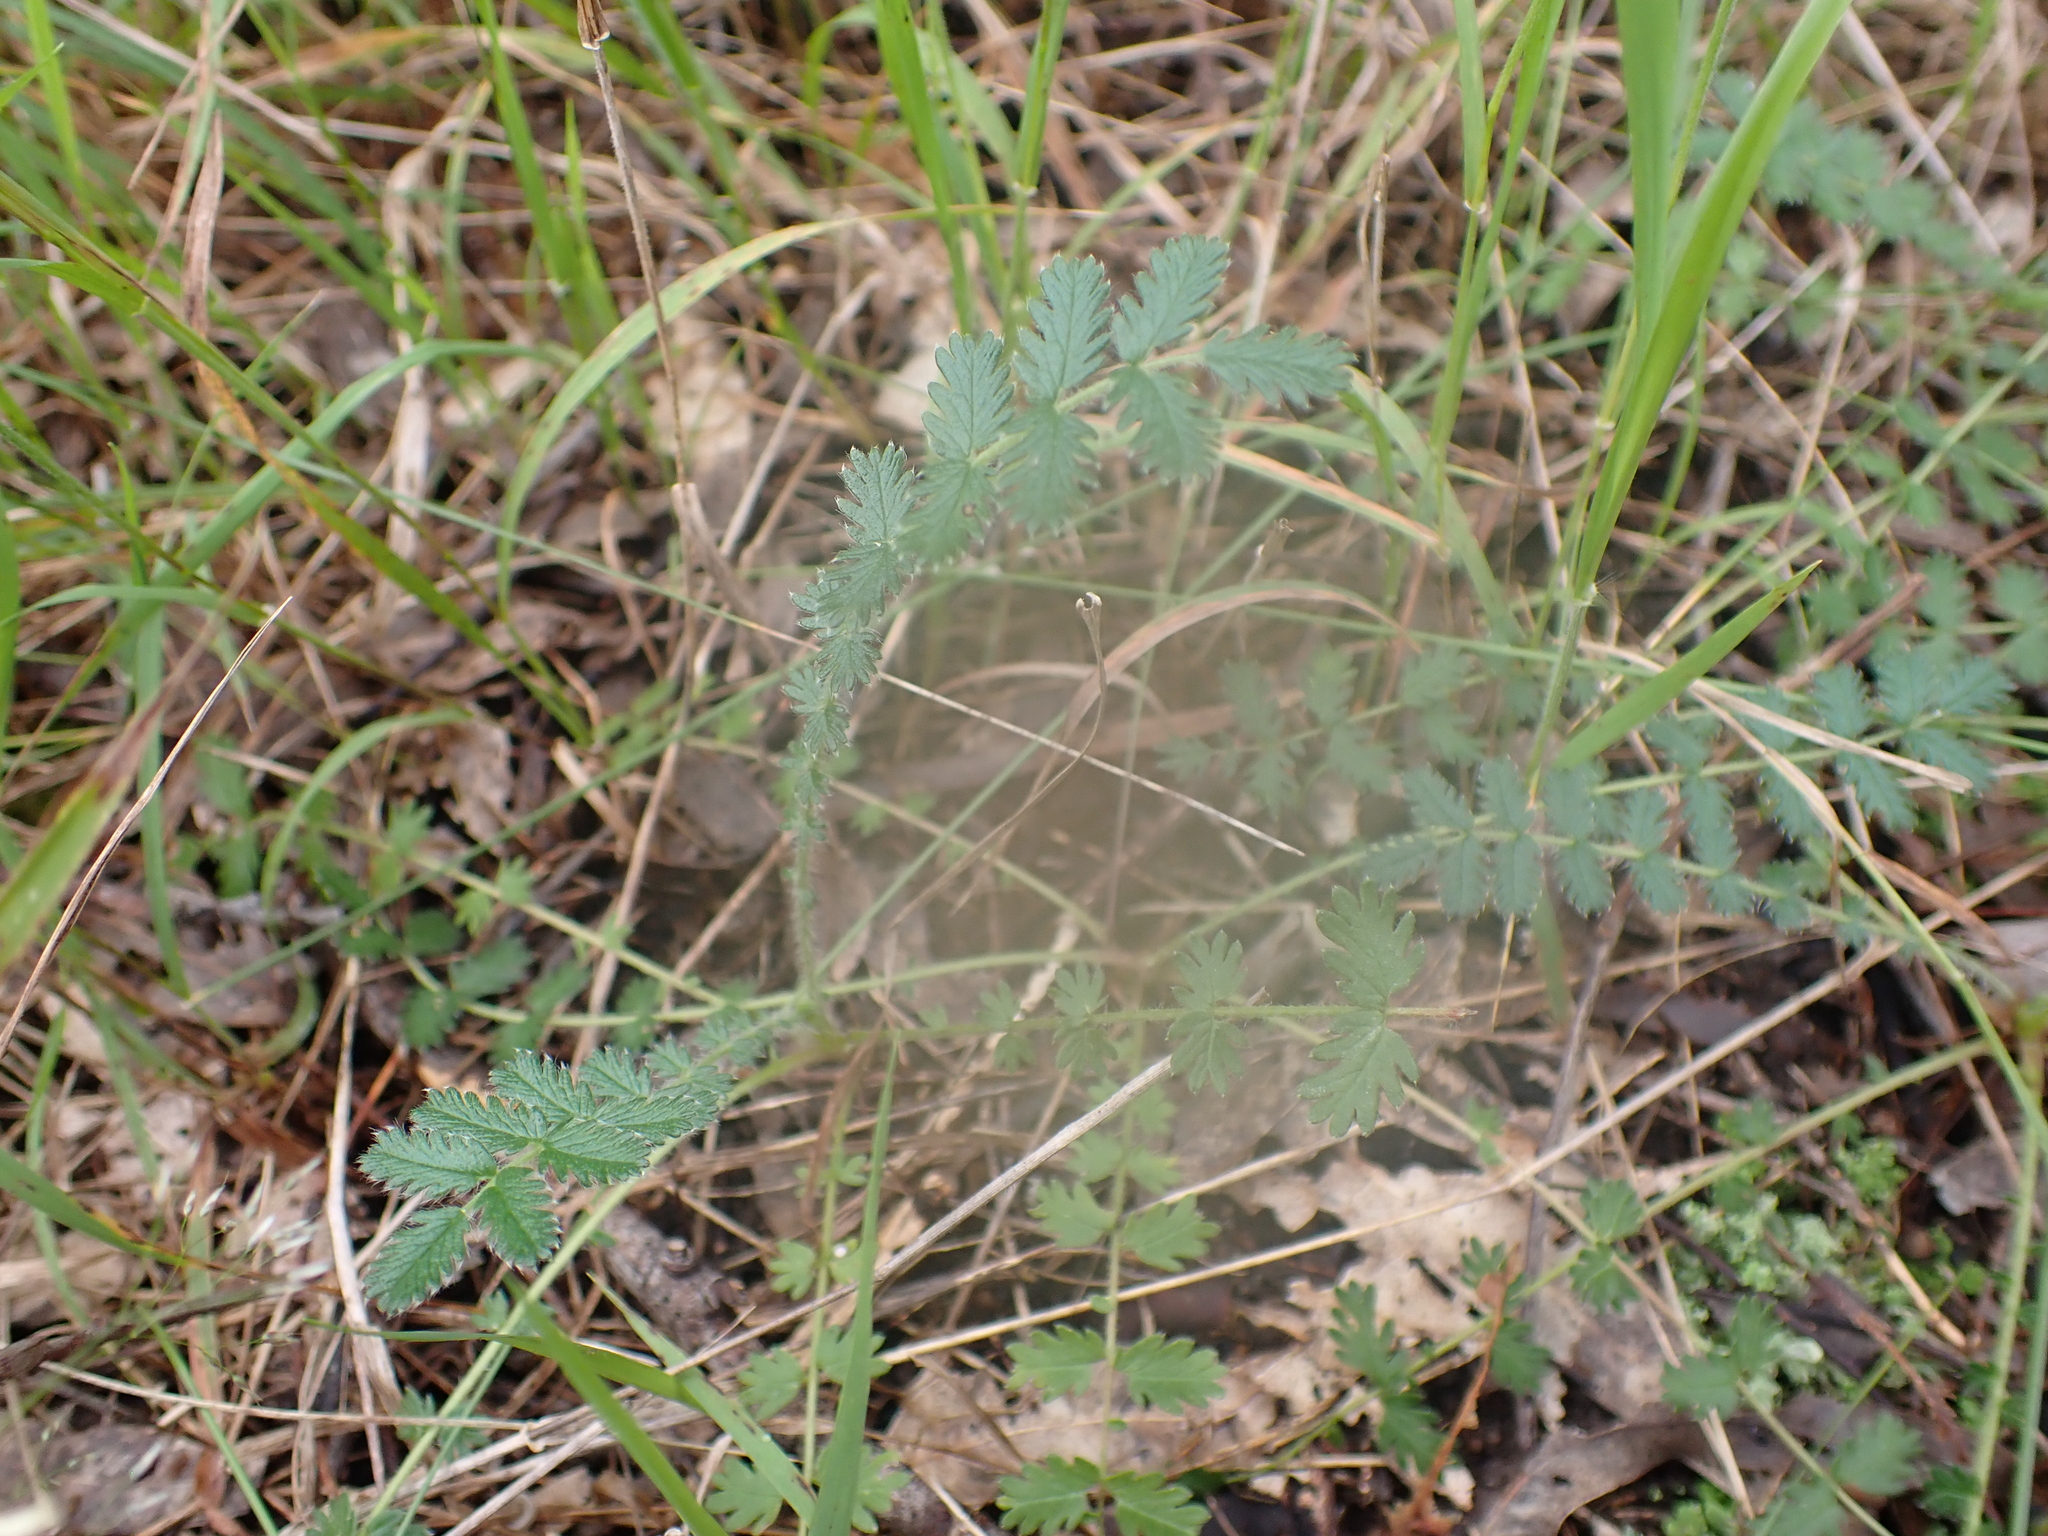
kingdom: Plantae
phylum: Tracheophyta
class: Magnoliopsida
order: Rosales
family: Rosaceae
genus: Acaena
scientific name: Acaena echinata
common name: Sheepbur
